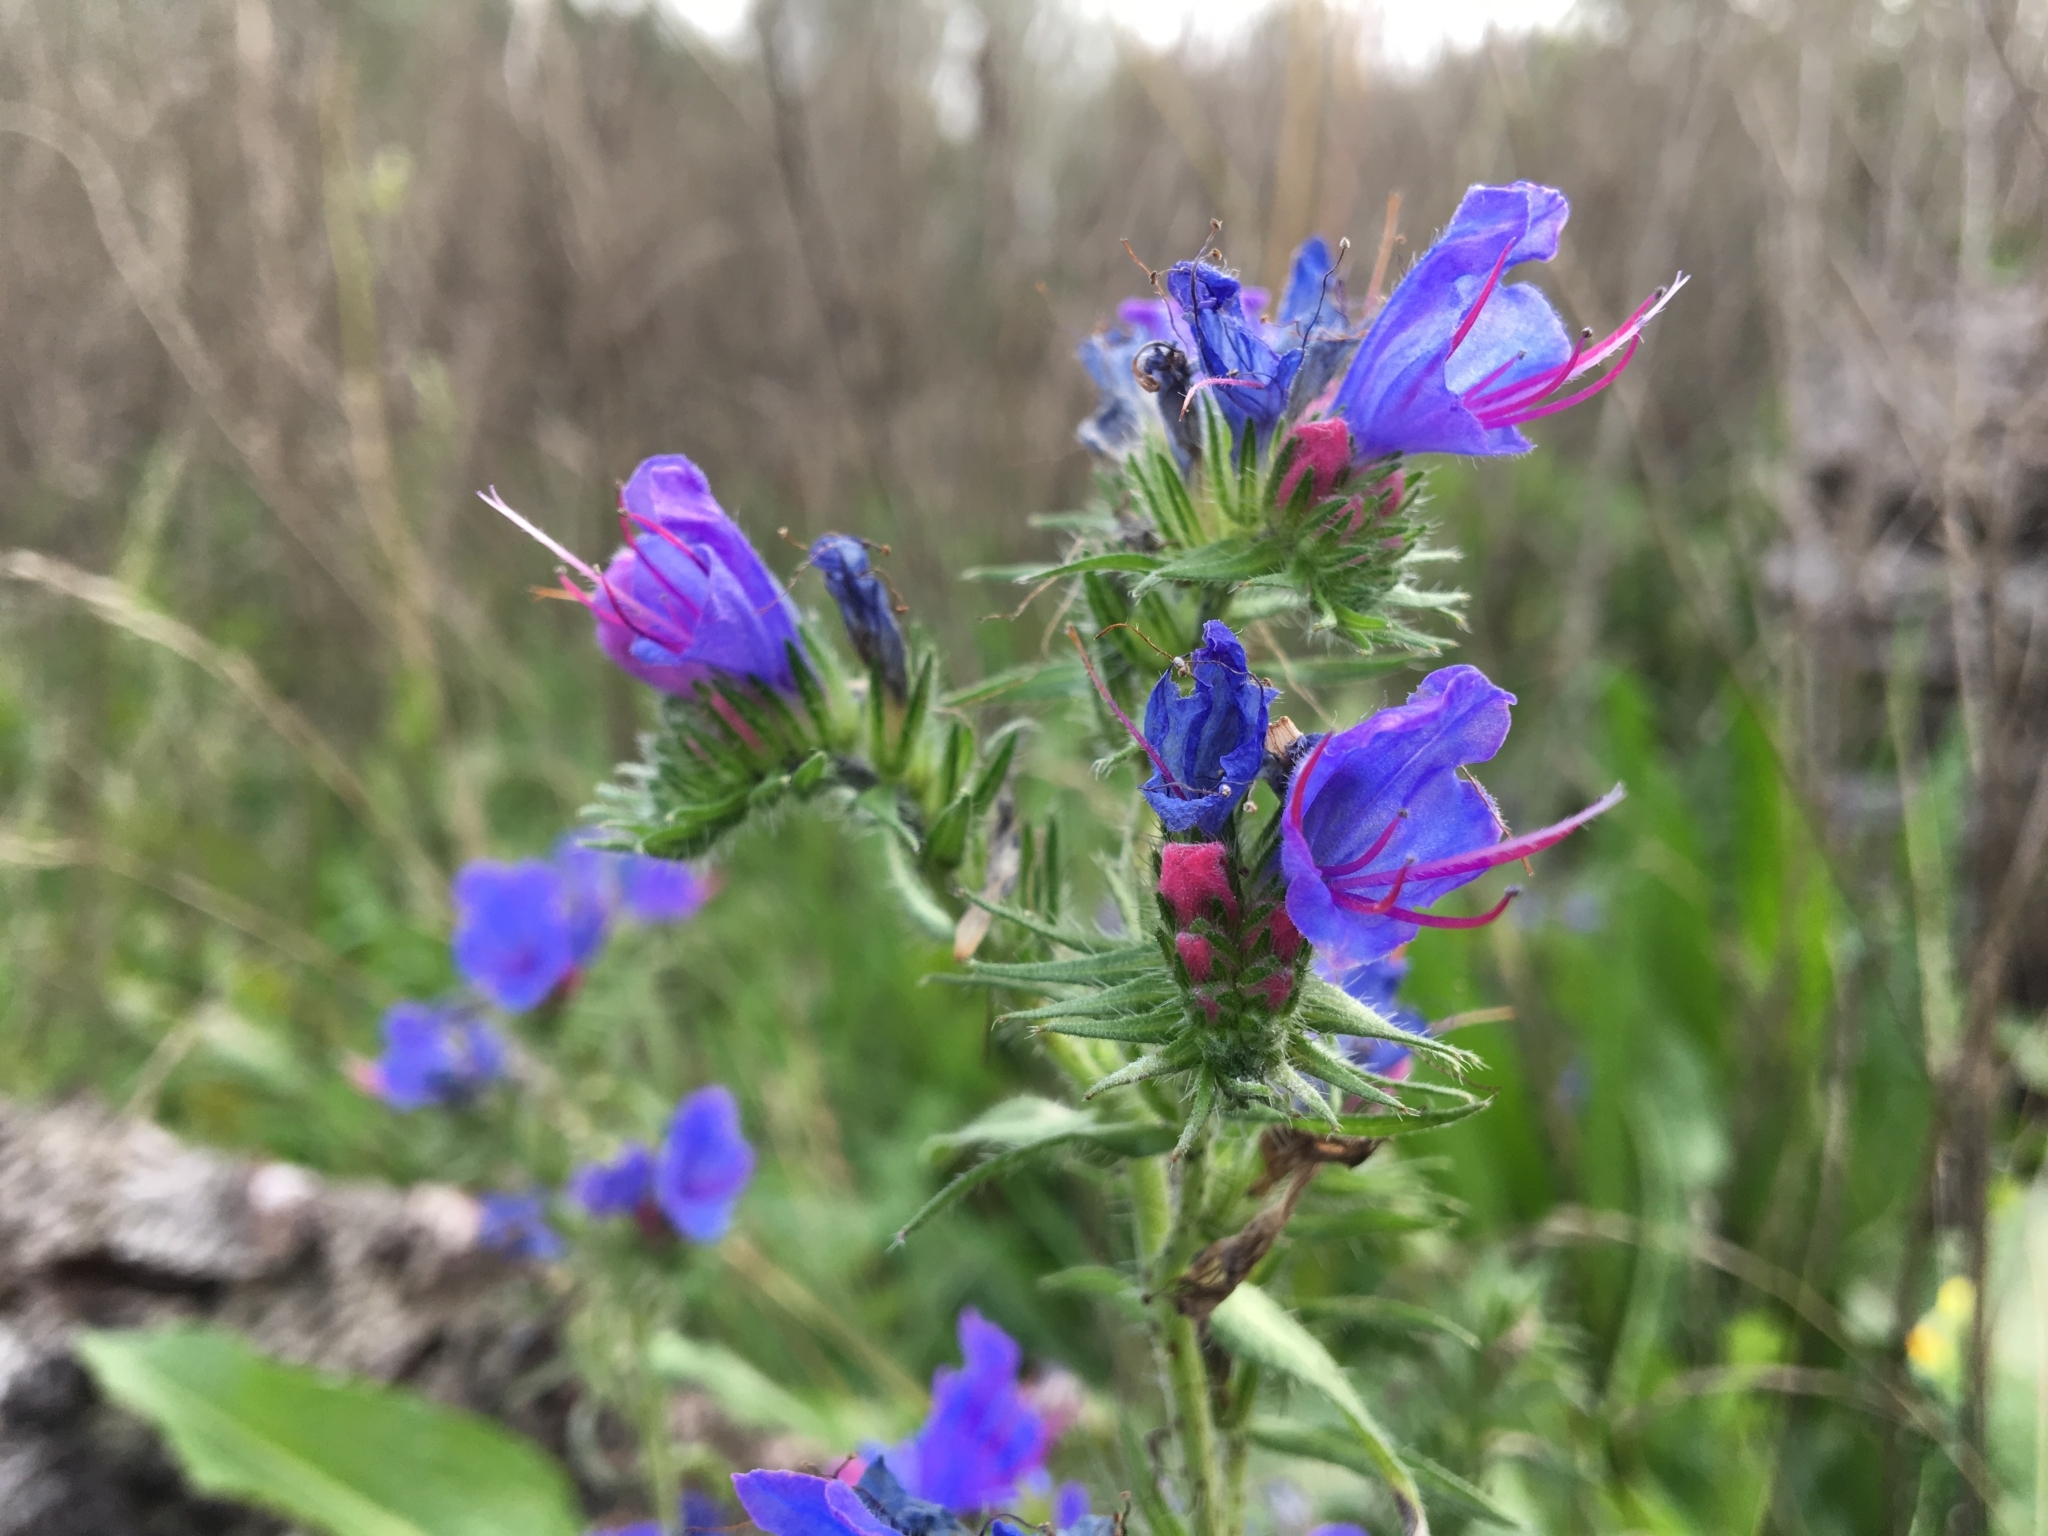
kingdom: Plantae
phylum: Tracheophyta
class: Magnoliopsida
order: Boraginales
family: Boraginaceae
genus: Echium
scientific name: Echium vulgare
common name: Common viper's bugloss
